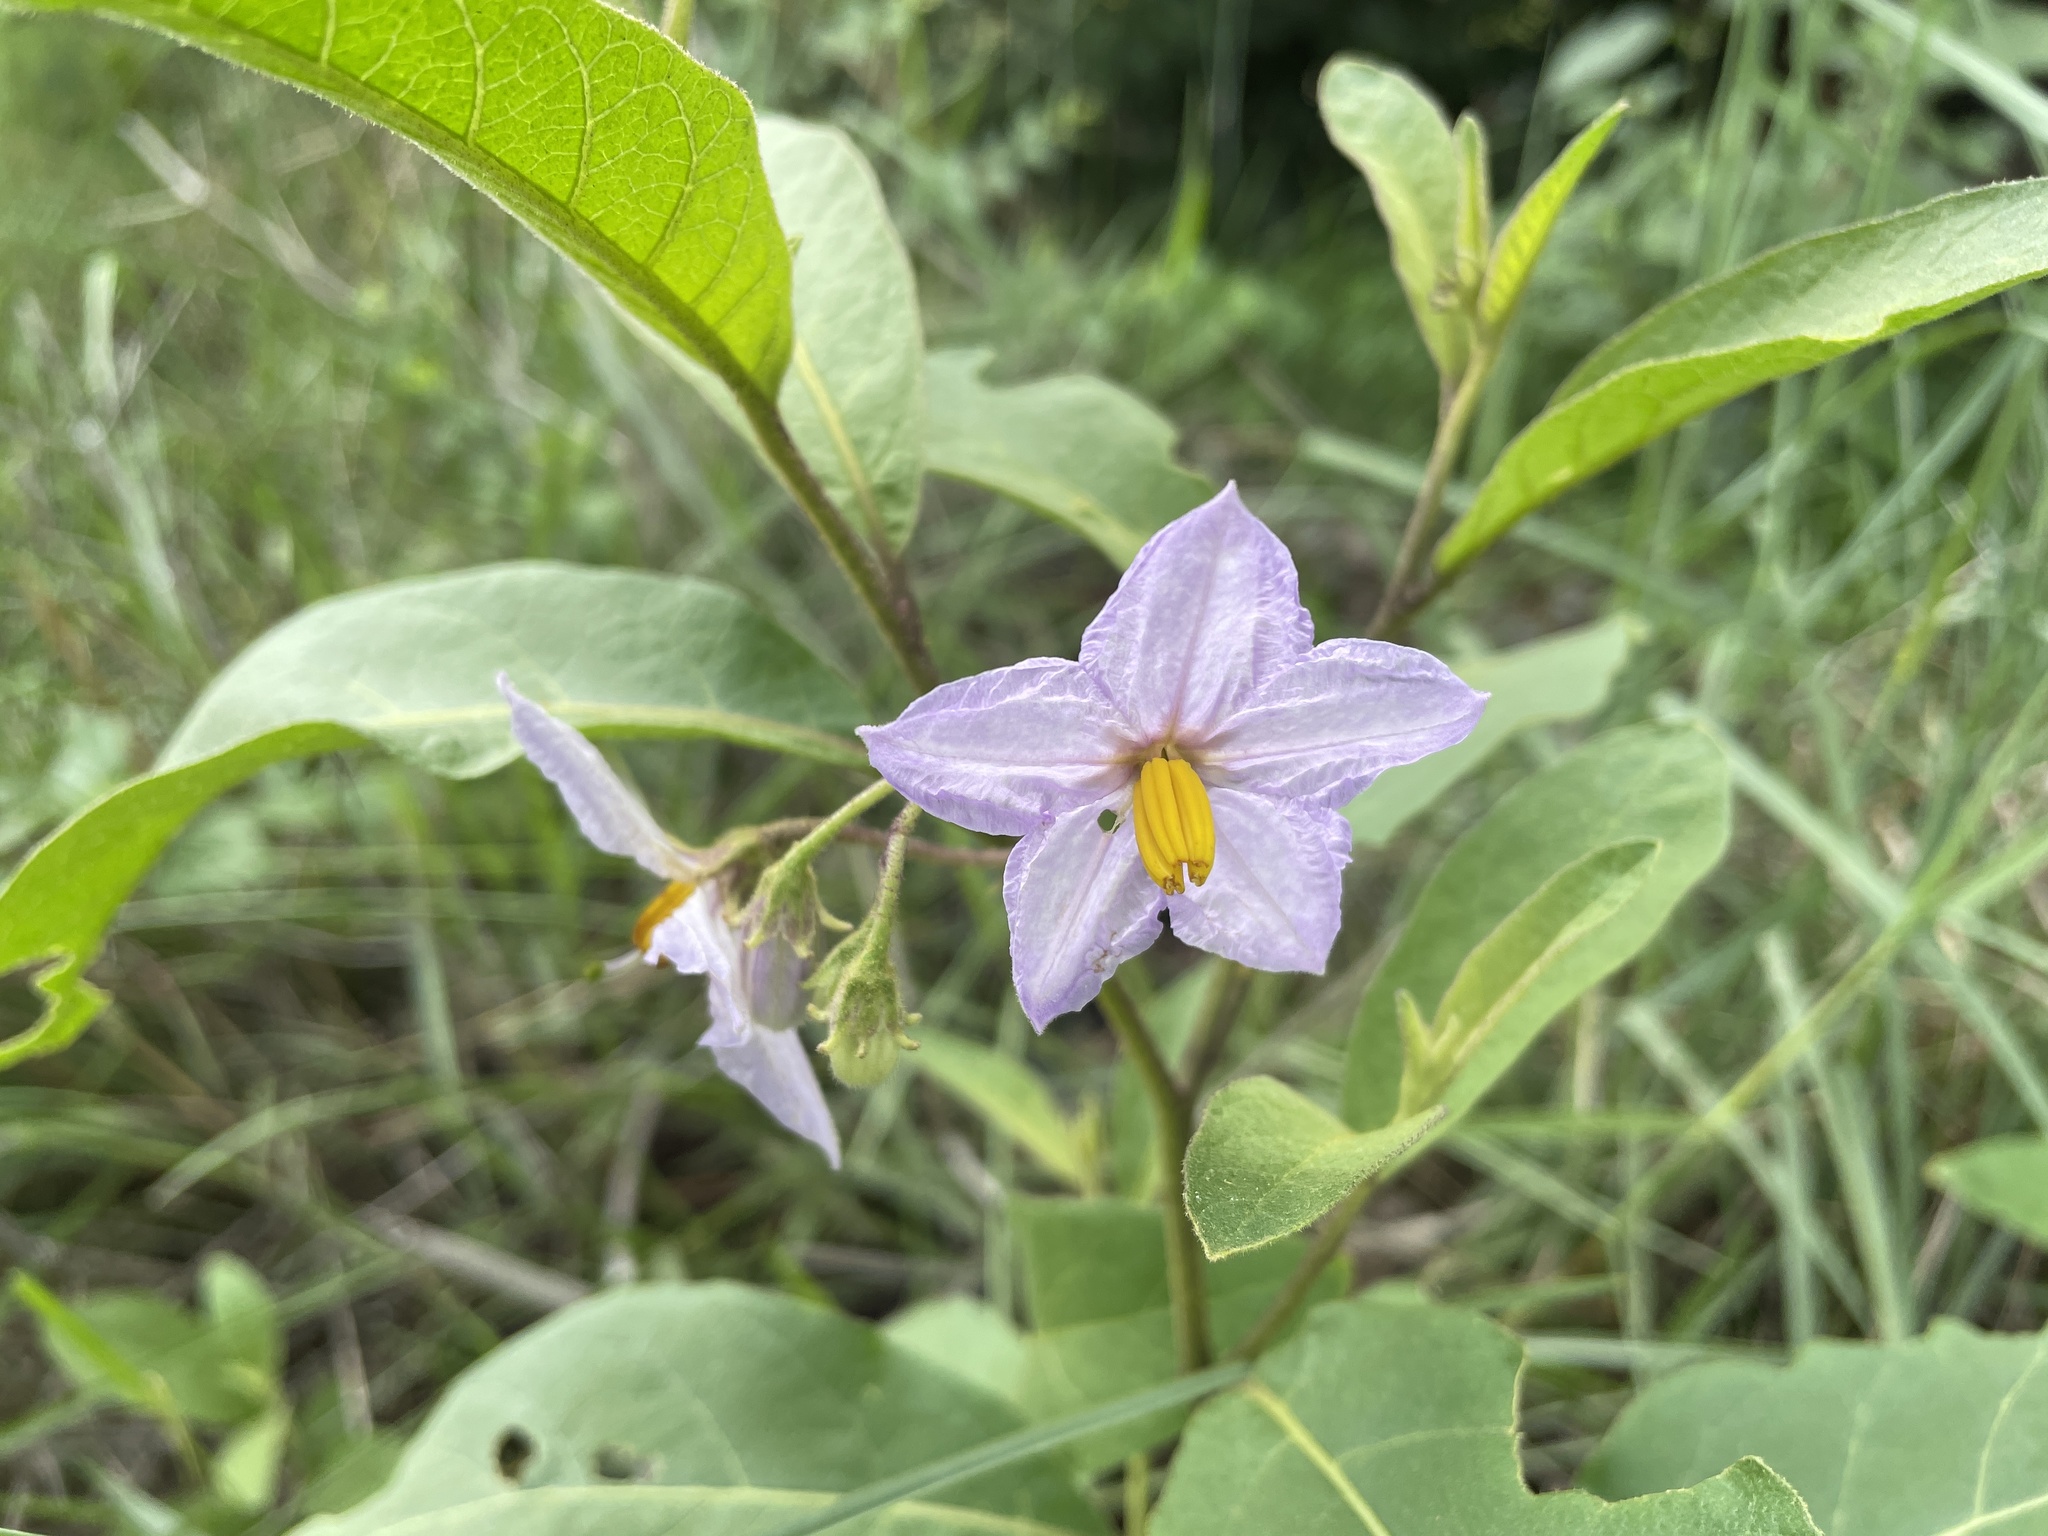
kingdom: Plantae
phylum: Tracheophyta
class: Magnoliopsida
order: Solanales
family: Solanaceae
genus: Solanum
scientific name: Solanum campylacanthum
